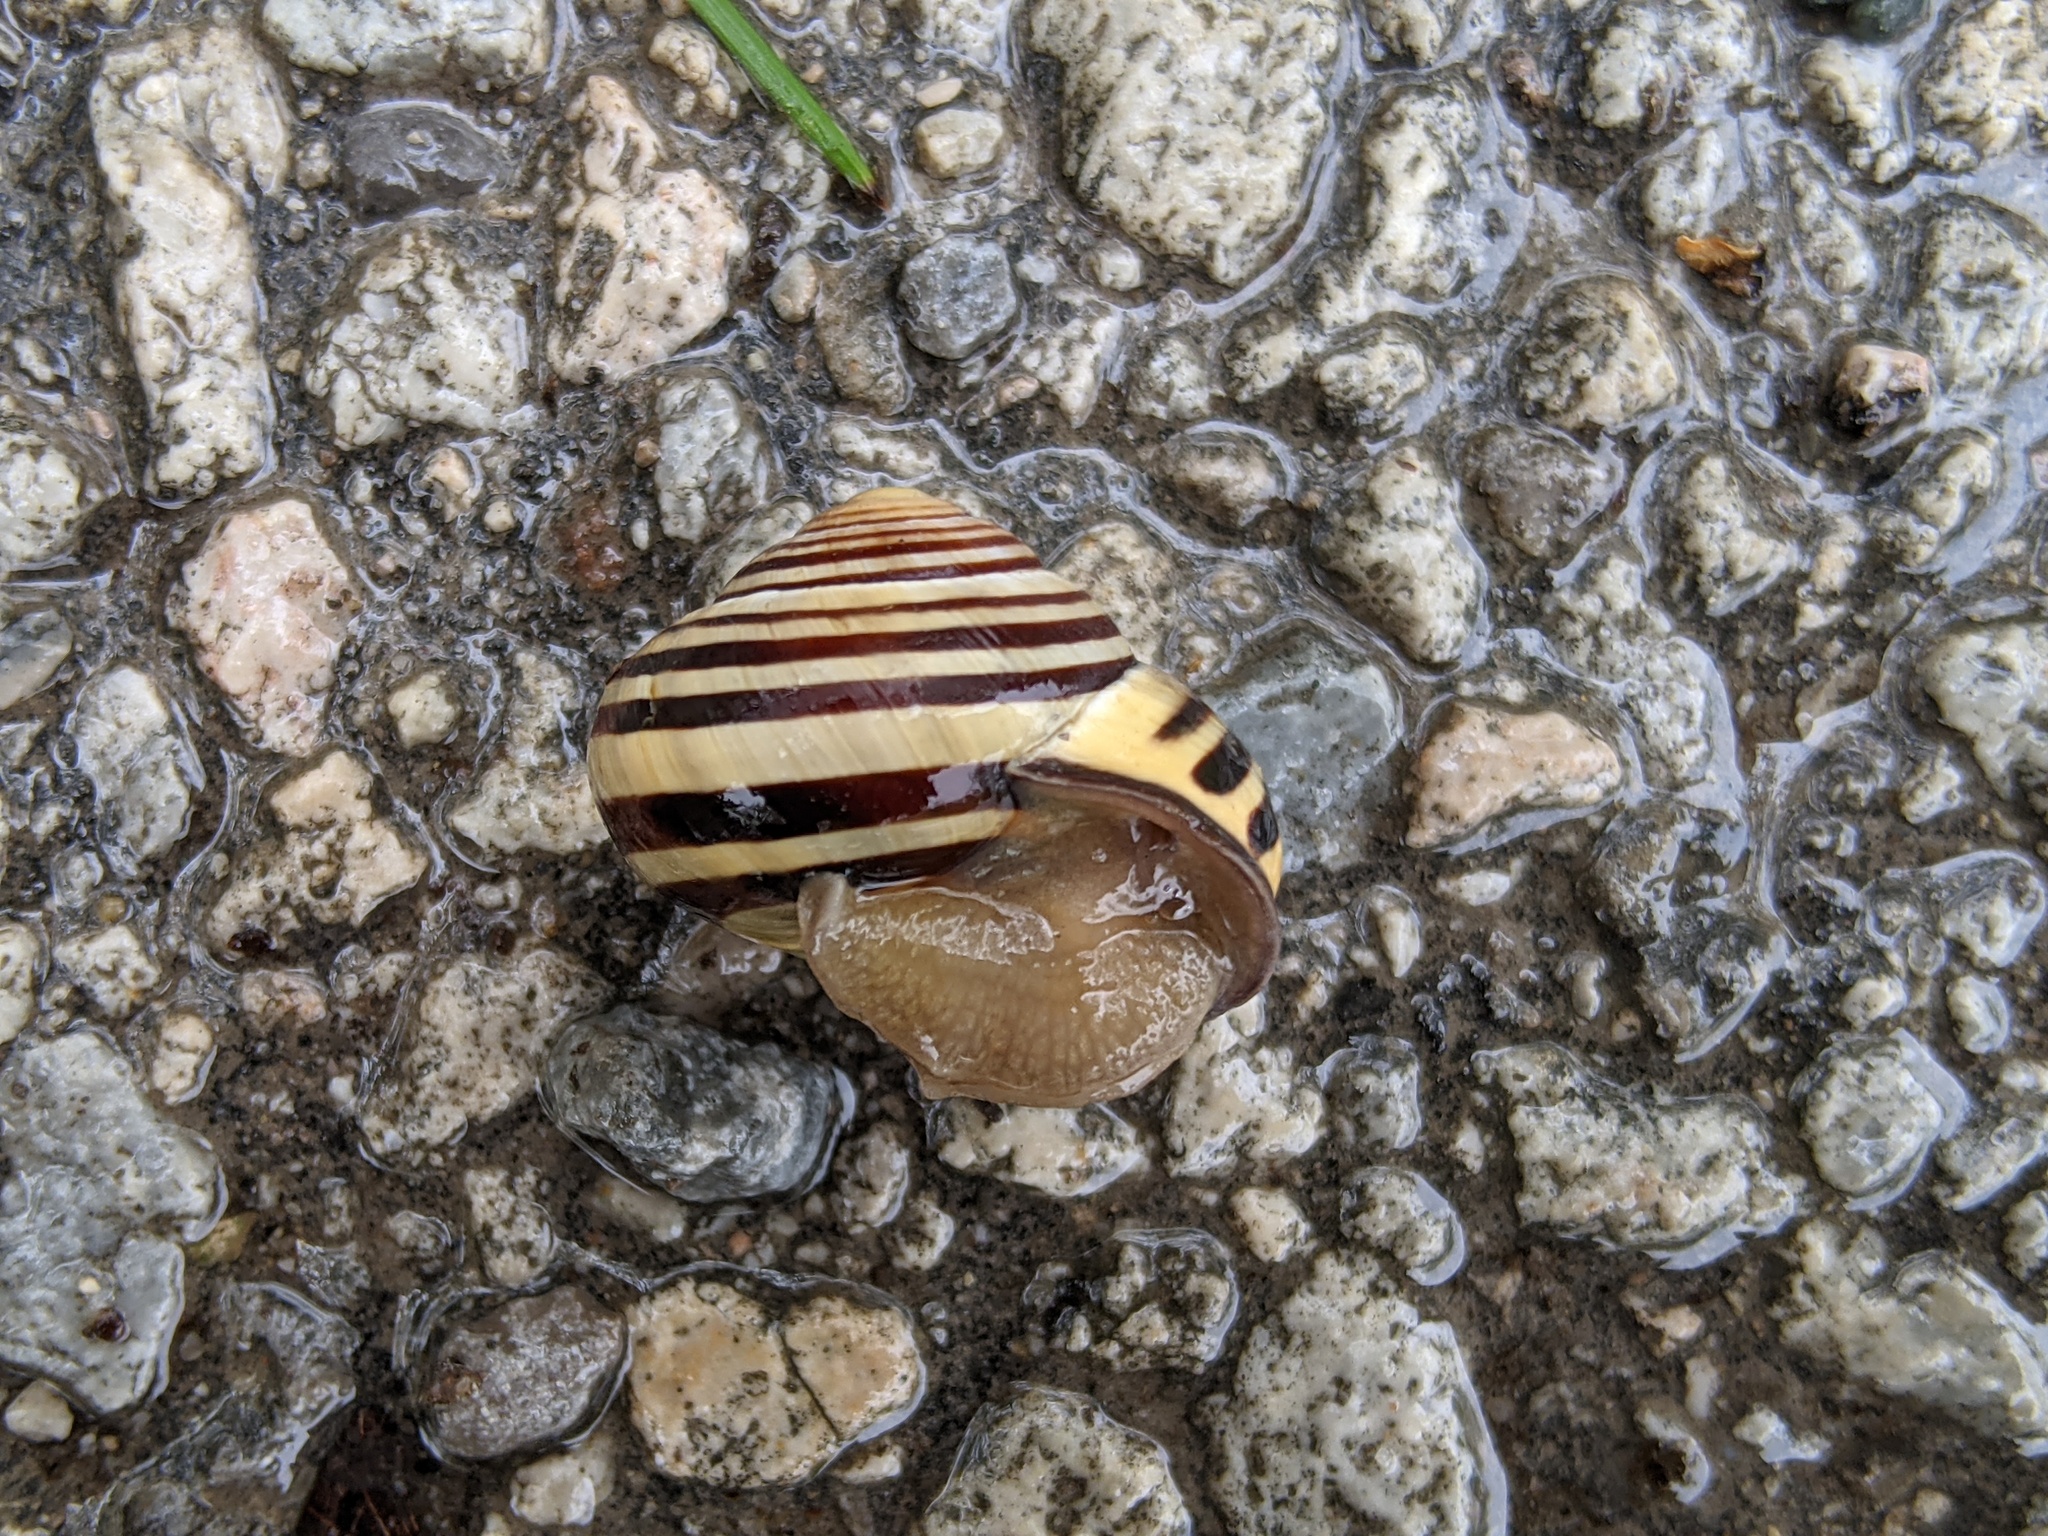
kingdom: Animalia
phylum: Mollusca
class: Gastropoda
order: Stylommatophora
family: Helicidae
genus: Cepaea
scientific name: Cepaea nemoralis
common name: Grovesnail
